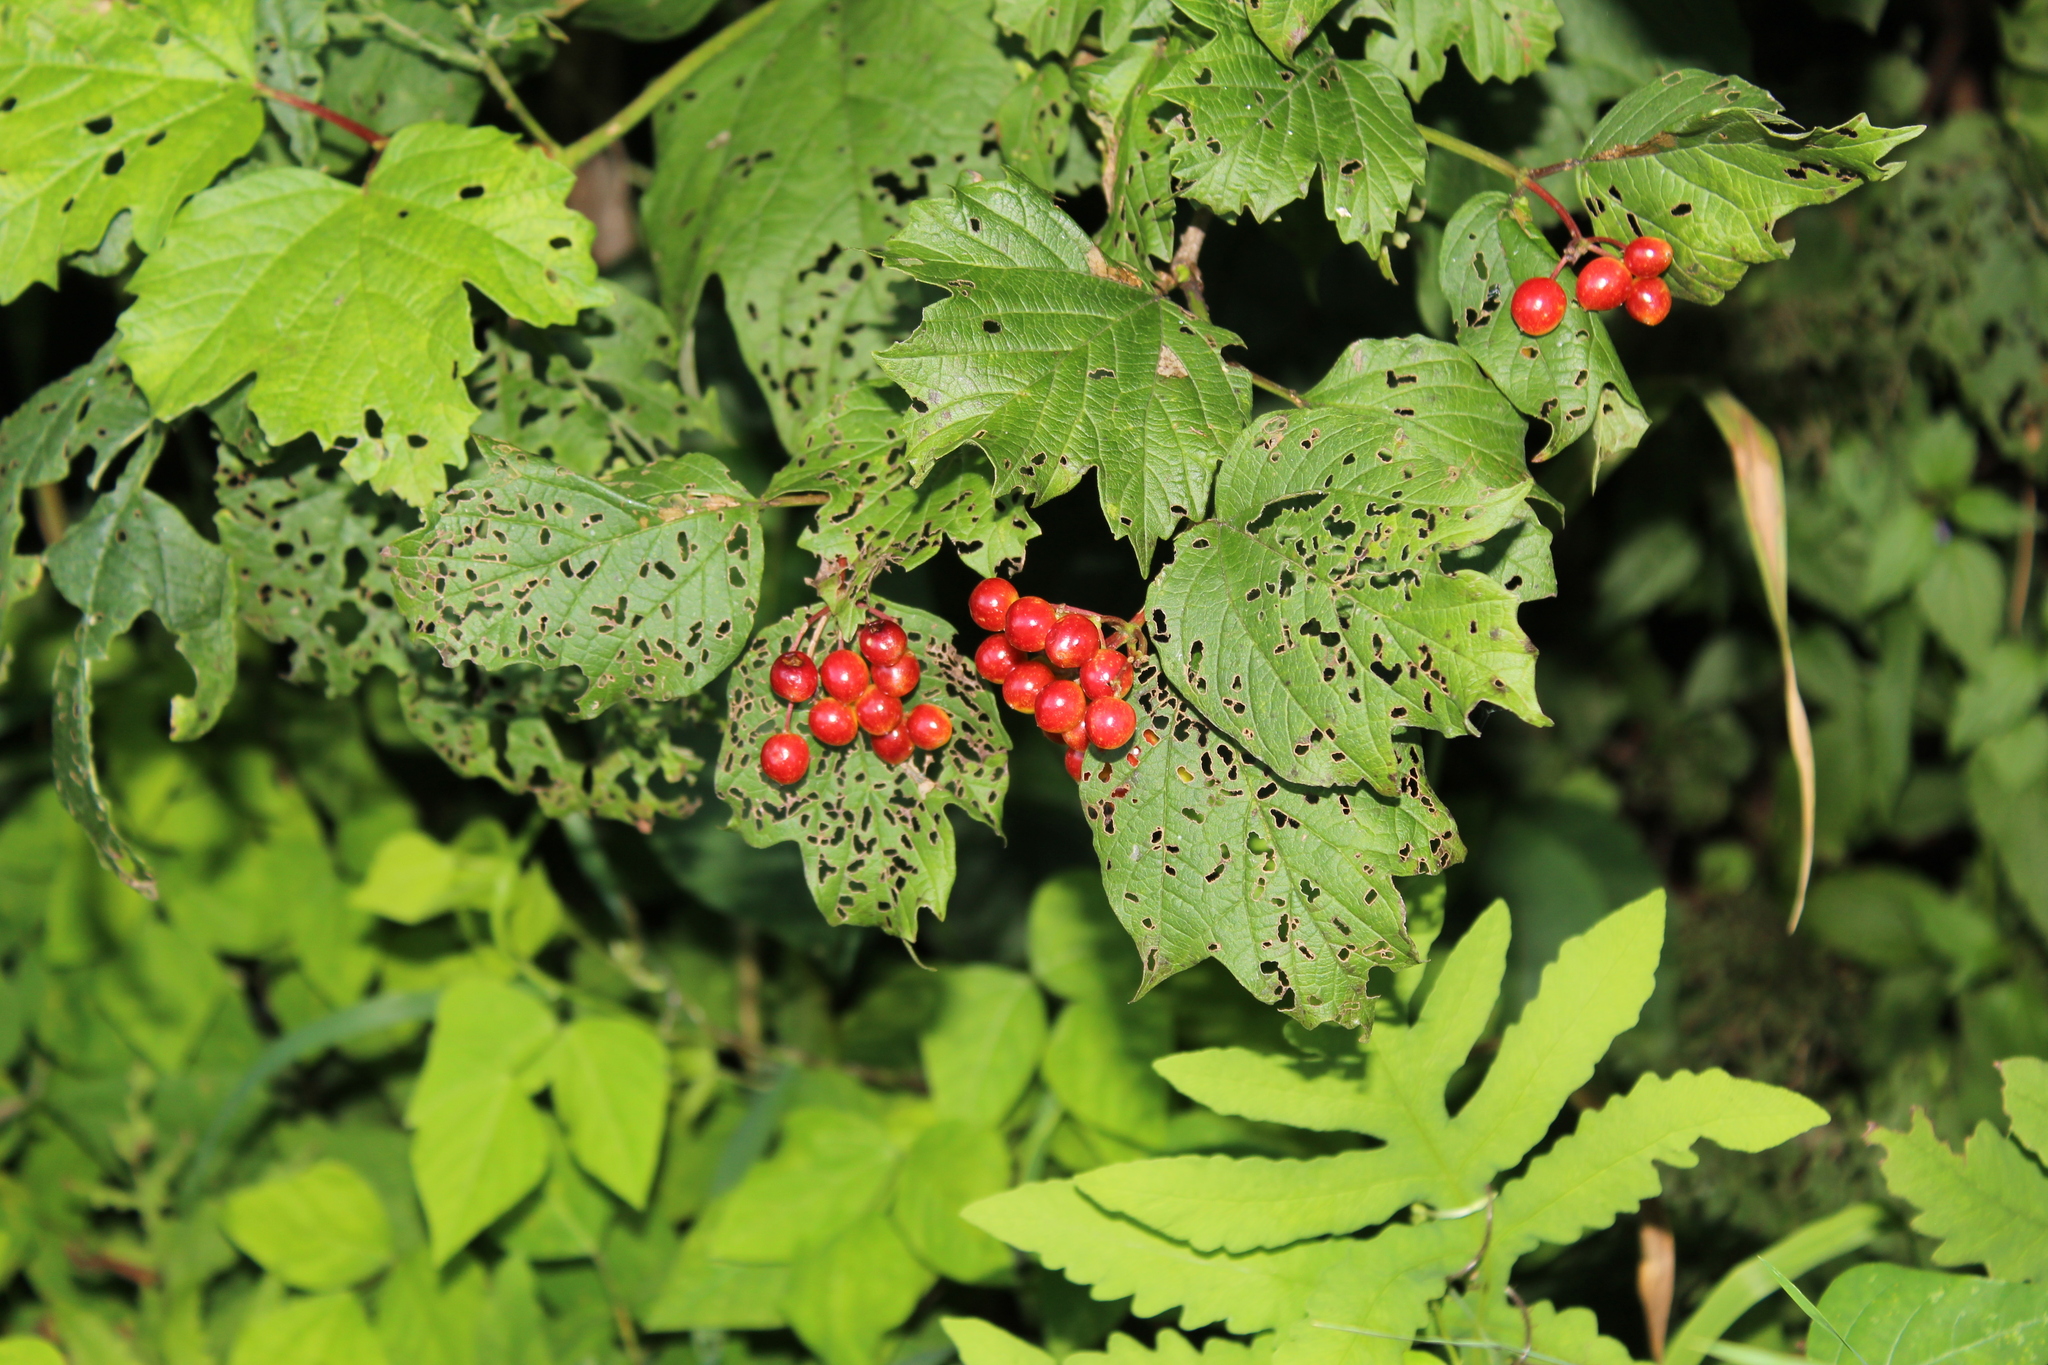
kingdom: Plantae
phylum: Tracheophyta
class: Magnoliopsida
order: Dipsacales
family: Viburnaceae
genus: Viburnum
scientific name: Viburnum opulus
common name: Guelder-rose
